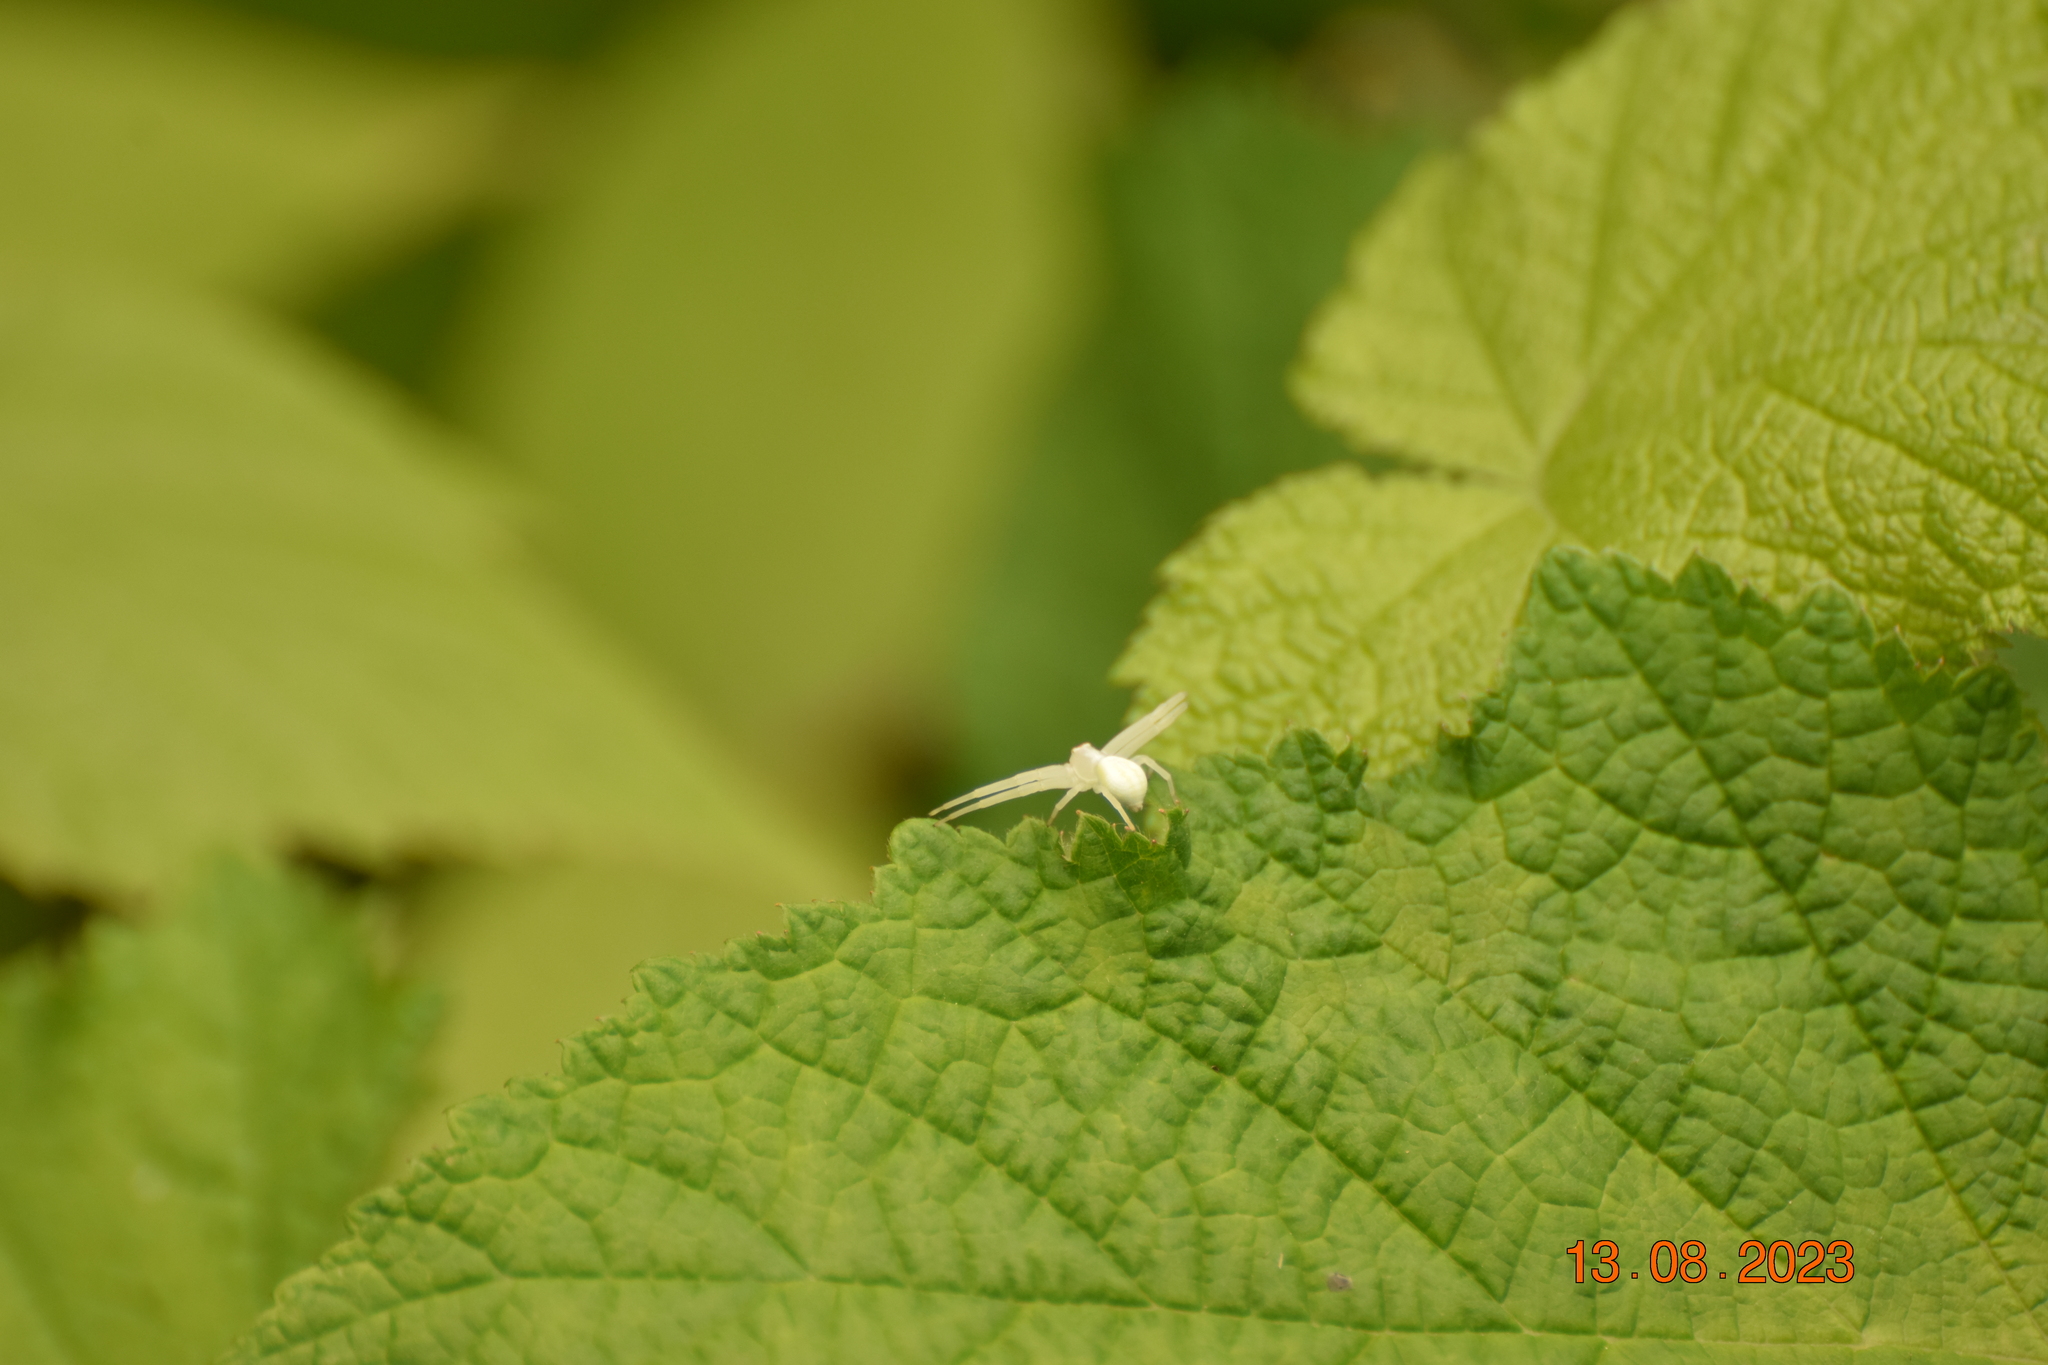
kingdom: Animalia
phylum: Arthropoda
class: Arachnida
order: Araneae
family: Thomisidae
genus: Misumena
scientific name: Misumena vatia
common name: Goldenrod crab spider
